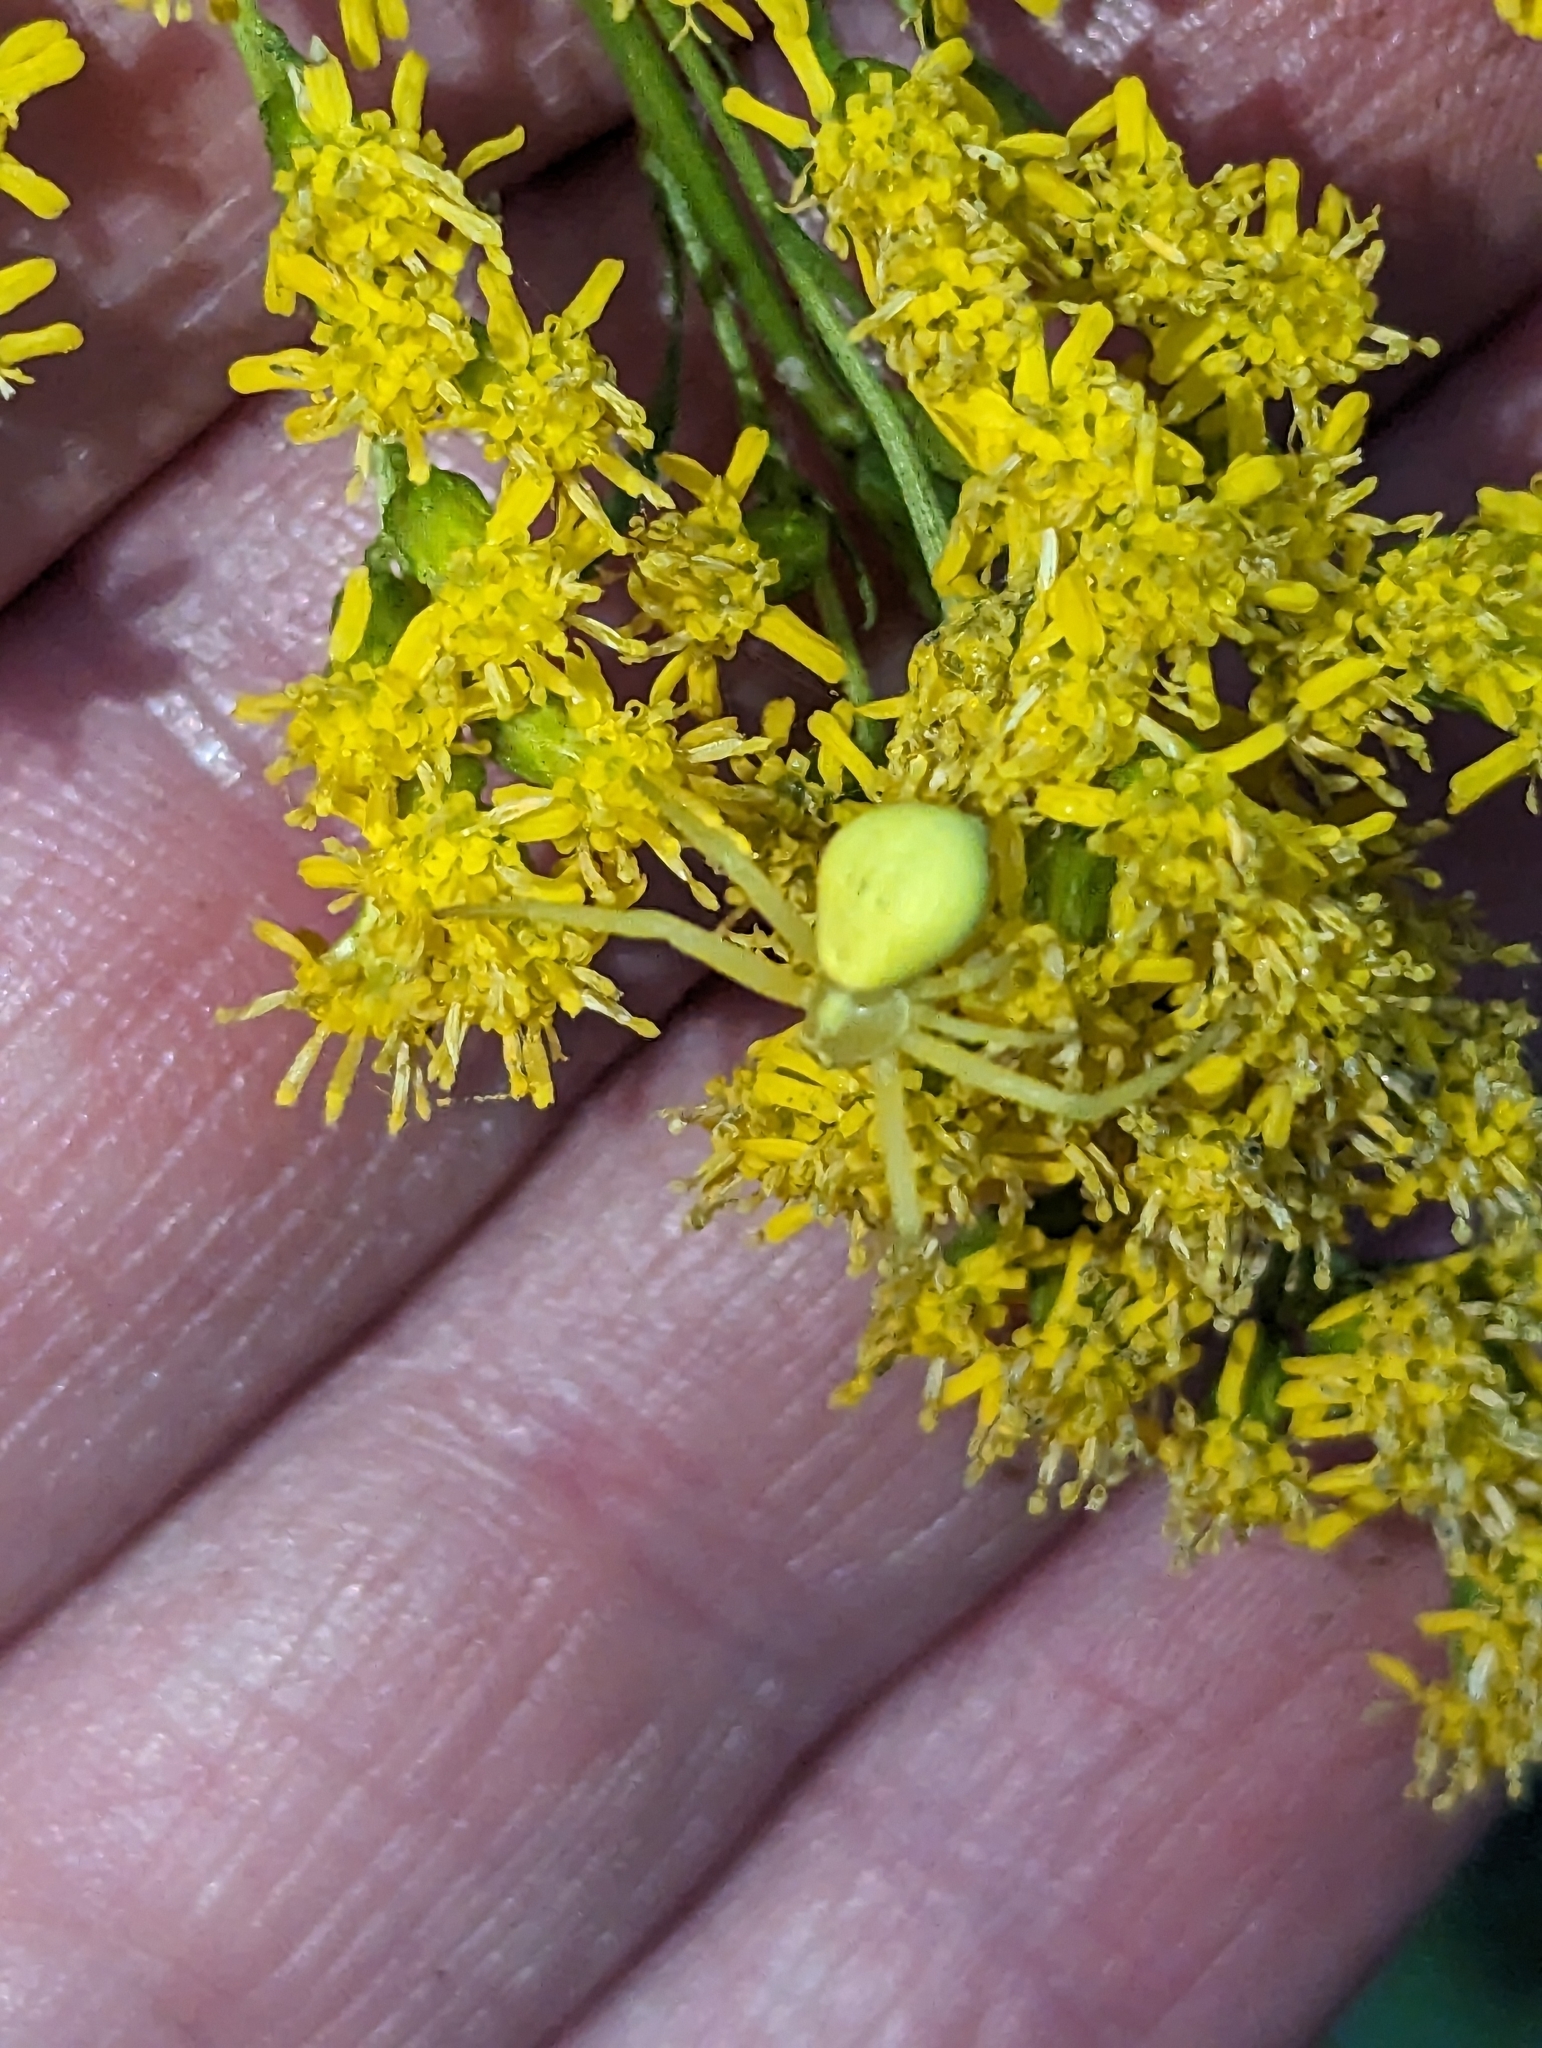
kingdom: Animalia
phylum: Arthropoda
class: Arachnida
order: Araneae
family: Thomisidae
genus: Misumena
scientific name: Misumena vatia
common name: Goldenrod crab spider
